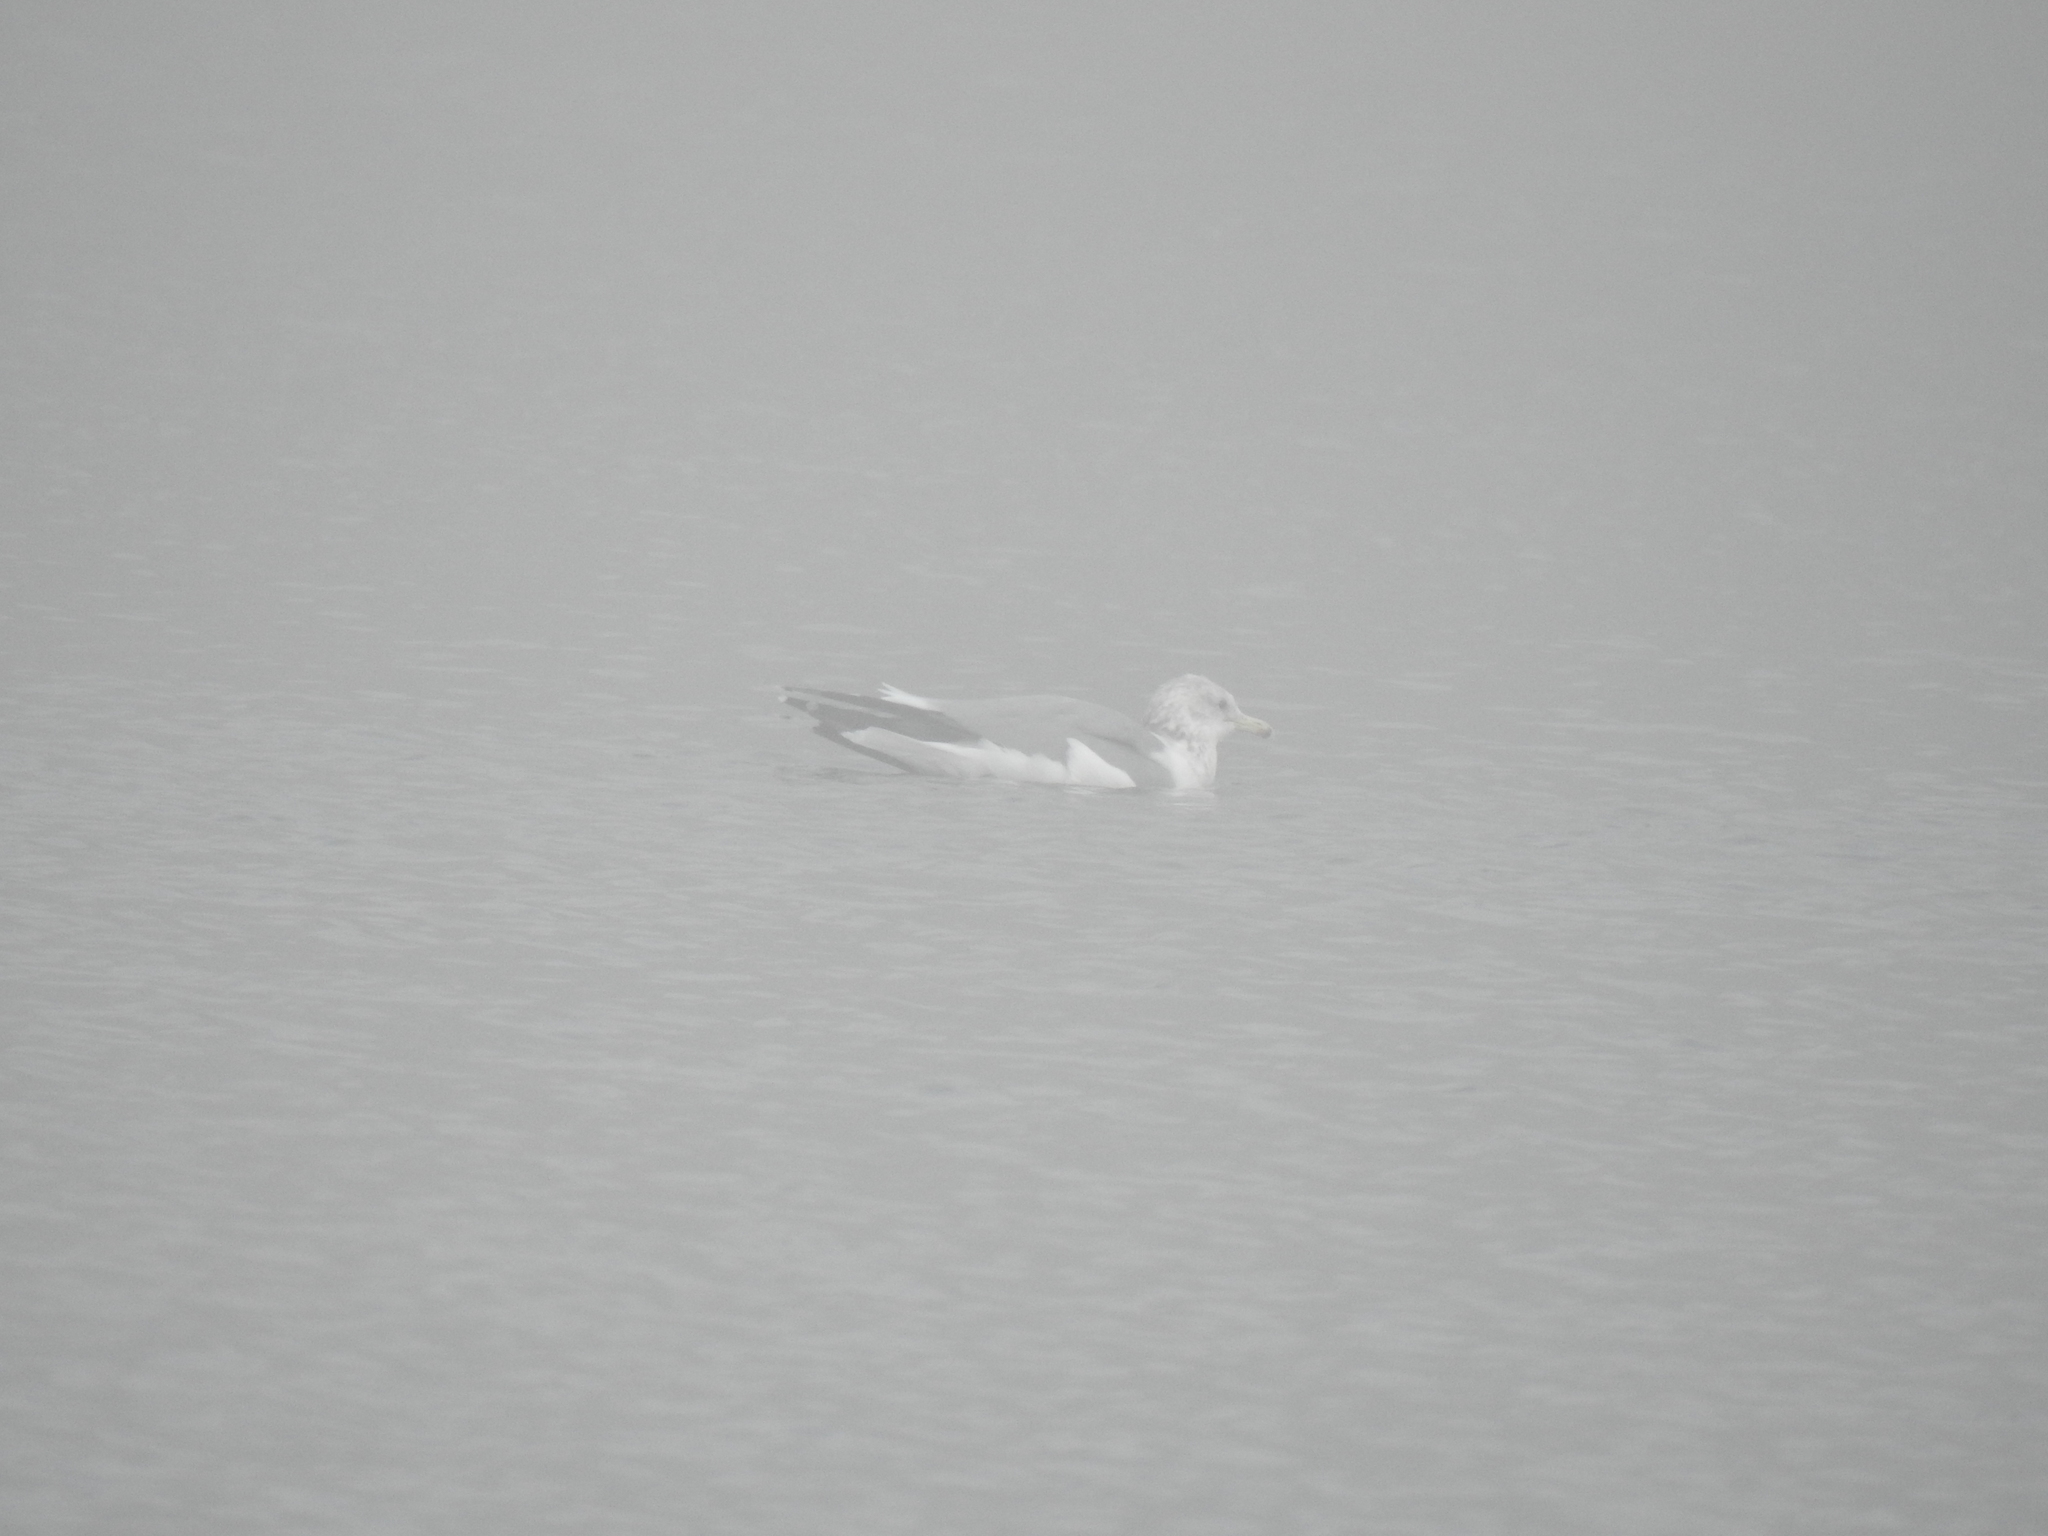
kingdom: Animalia
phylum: Chordata
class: Aves
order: Charadriiformes
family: Laridae
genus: Larus
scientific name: Larus californicus
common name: California gull
